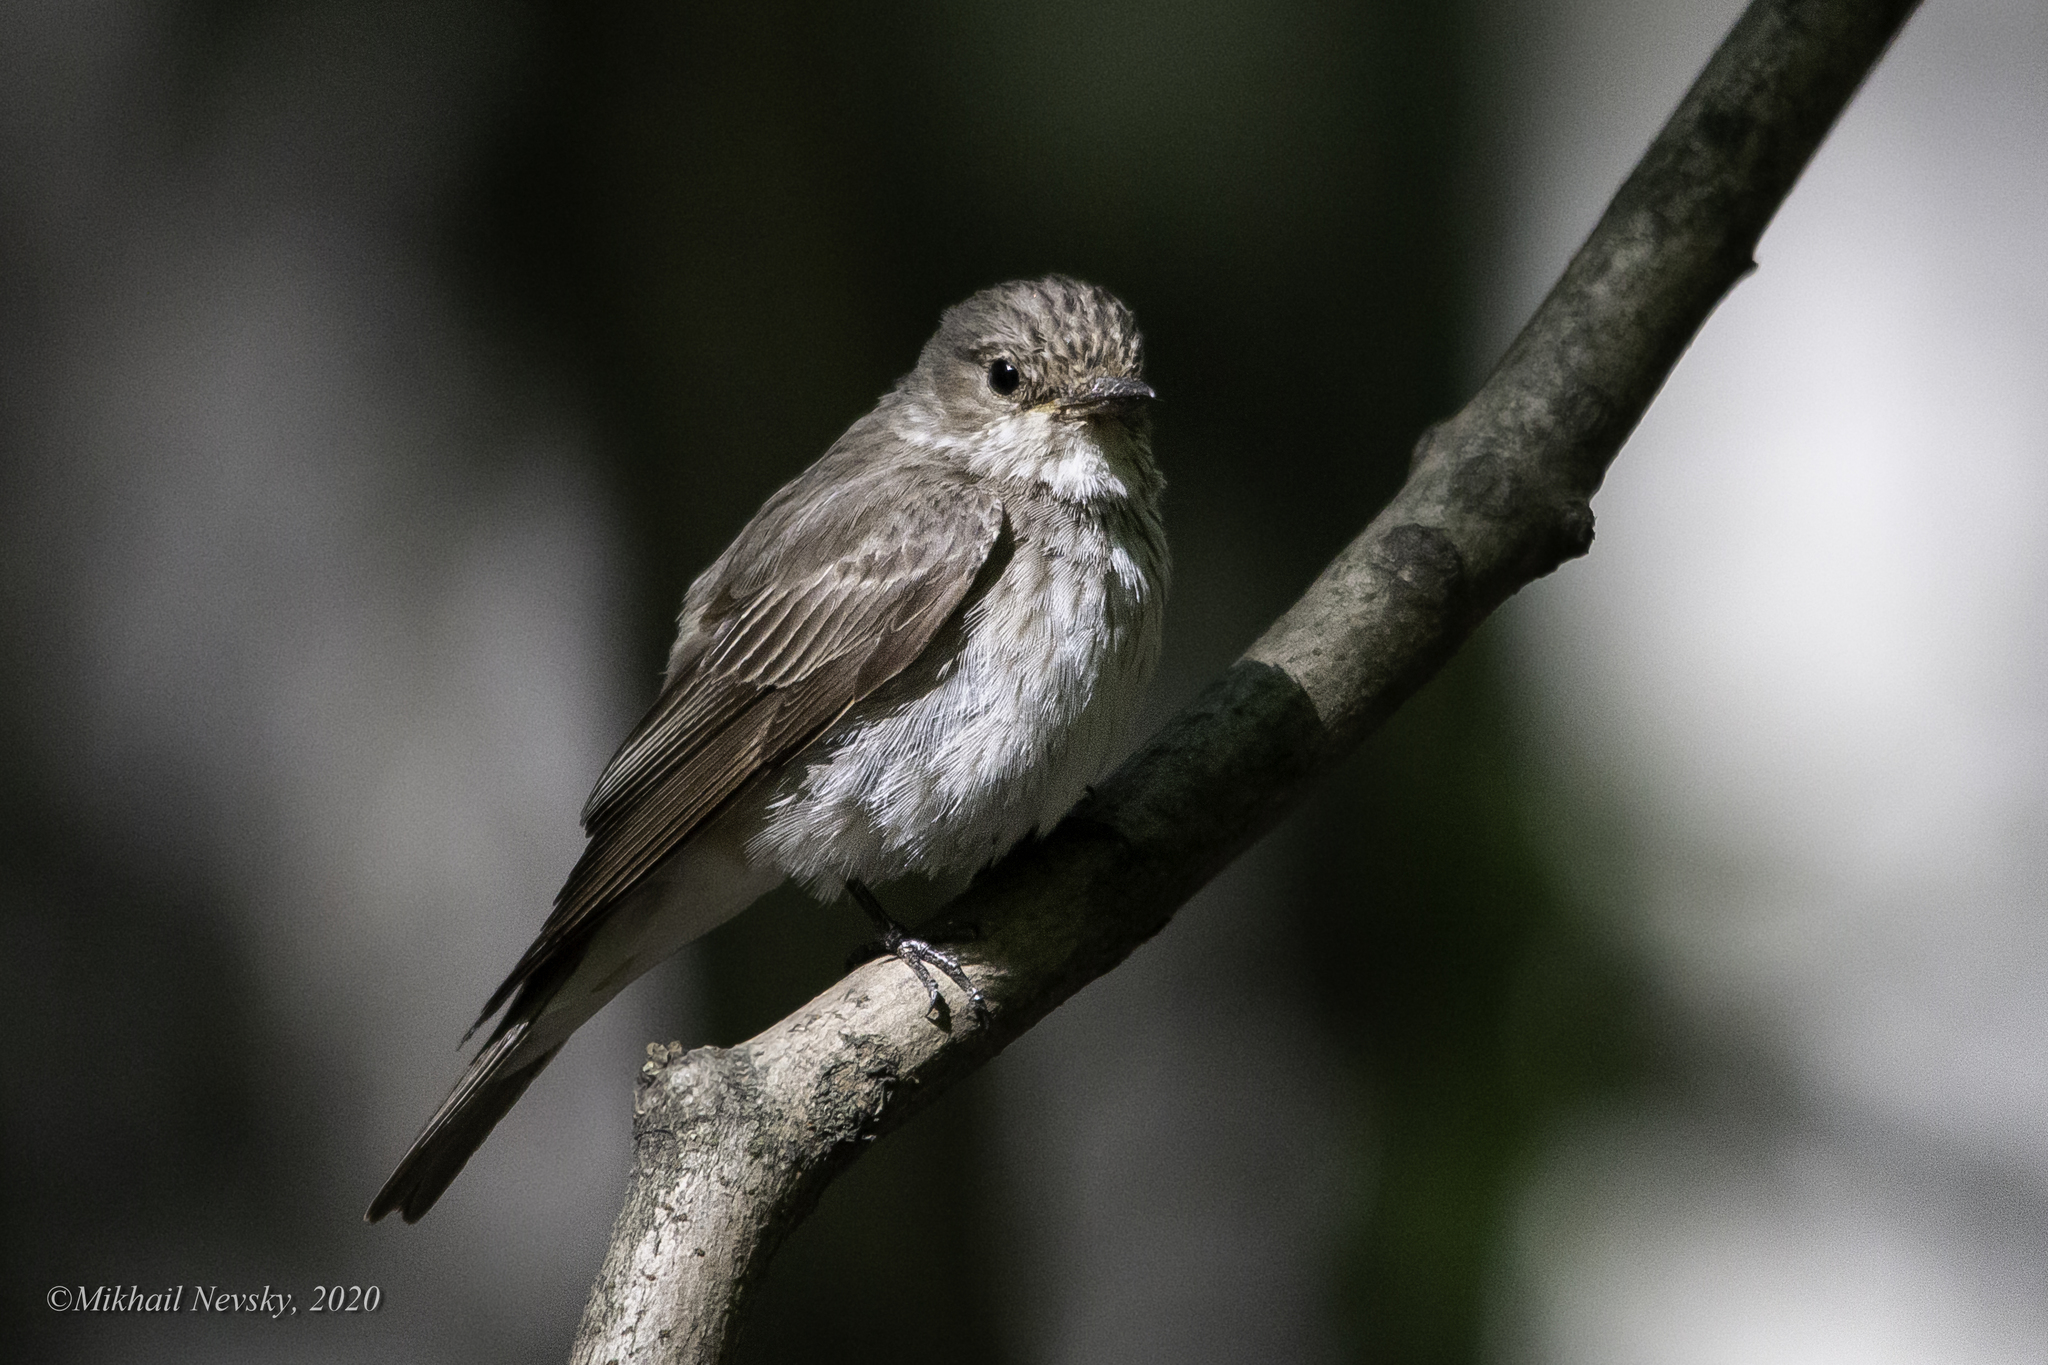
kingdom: Animalia
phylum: Chordata
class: Aves
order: Passeriformes
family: Muscicapidae
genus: Muscicapa
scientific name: Muscicapa striata
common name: Spotted flycatcher
